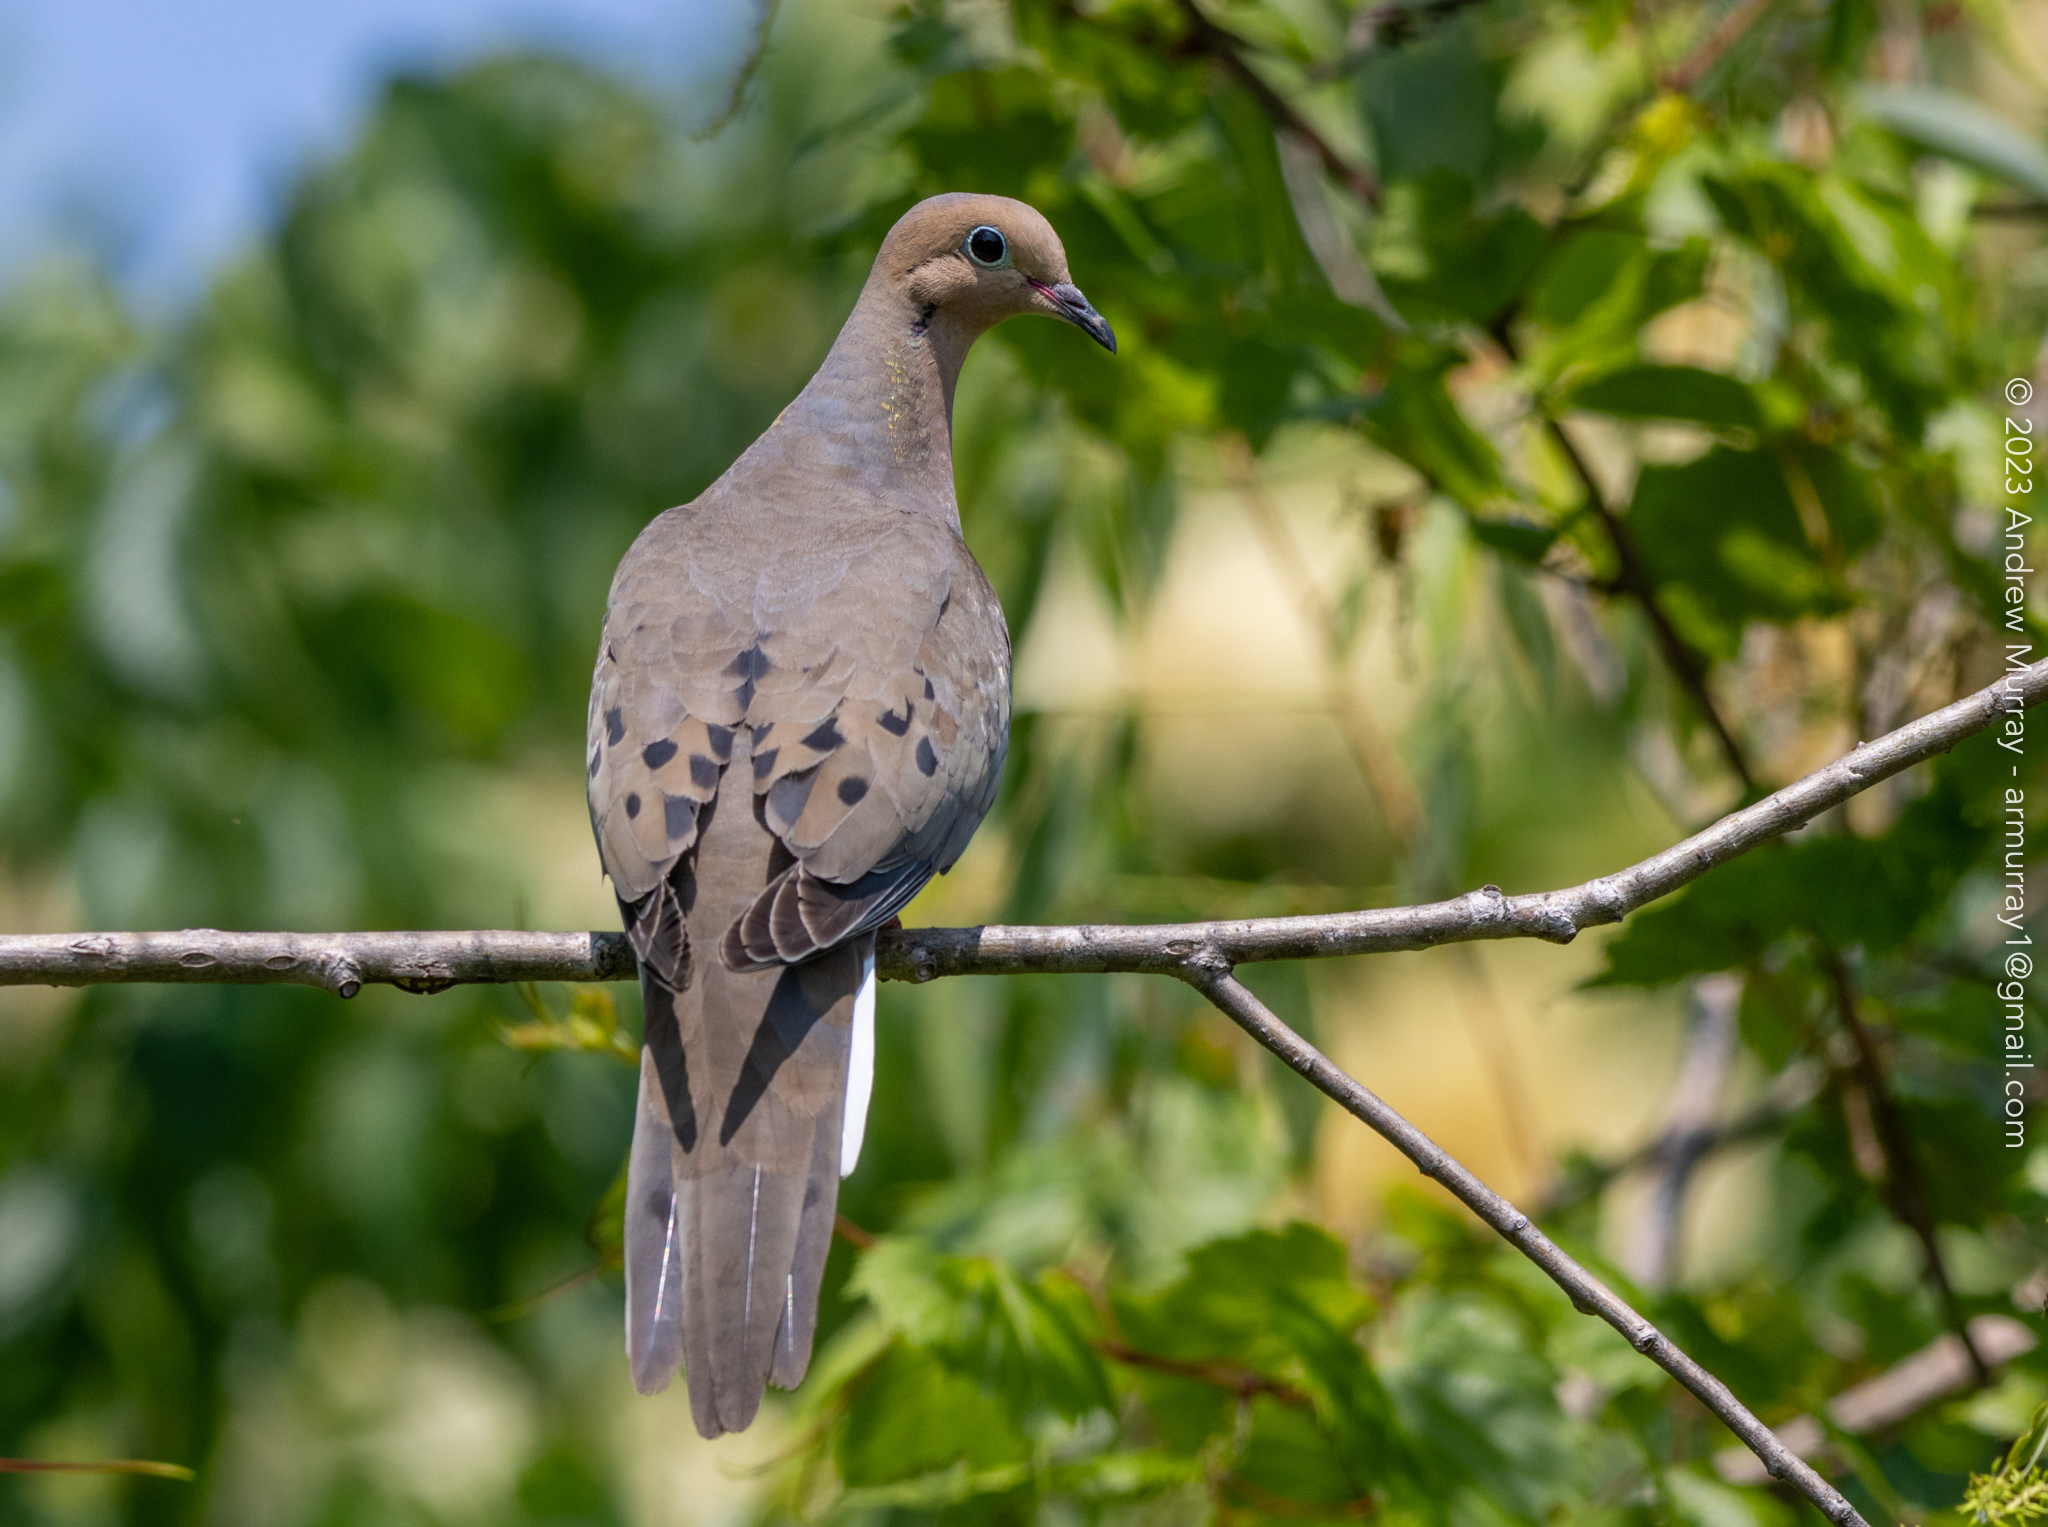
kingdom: Animalia
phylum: Chordata
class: Aves
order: Columbiformes
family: Columbidae
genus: Zenaida
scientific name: Zenaida macroura
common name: Mourning dove
